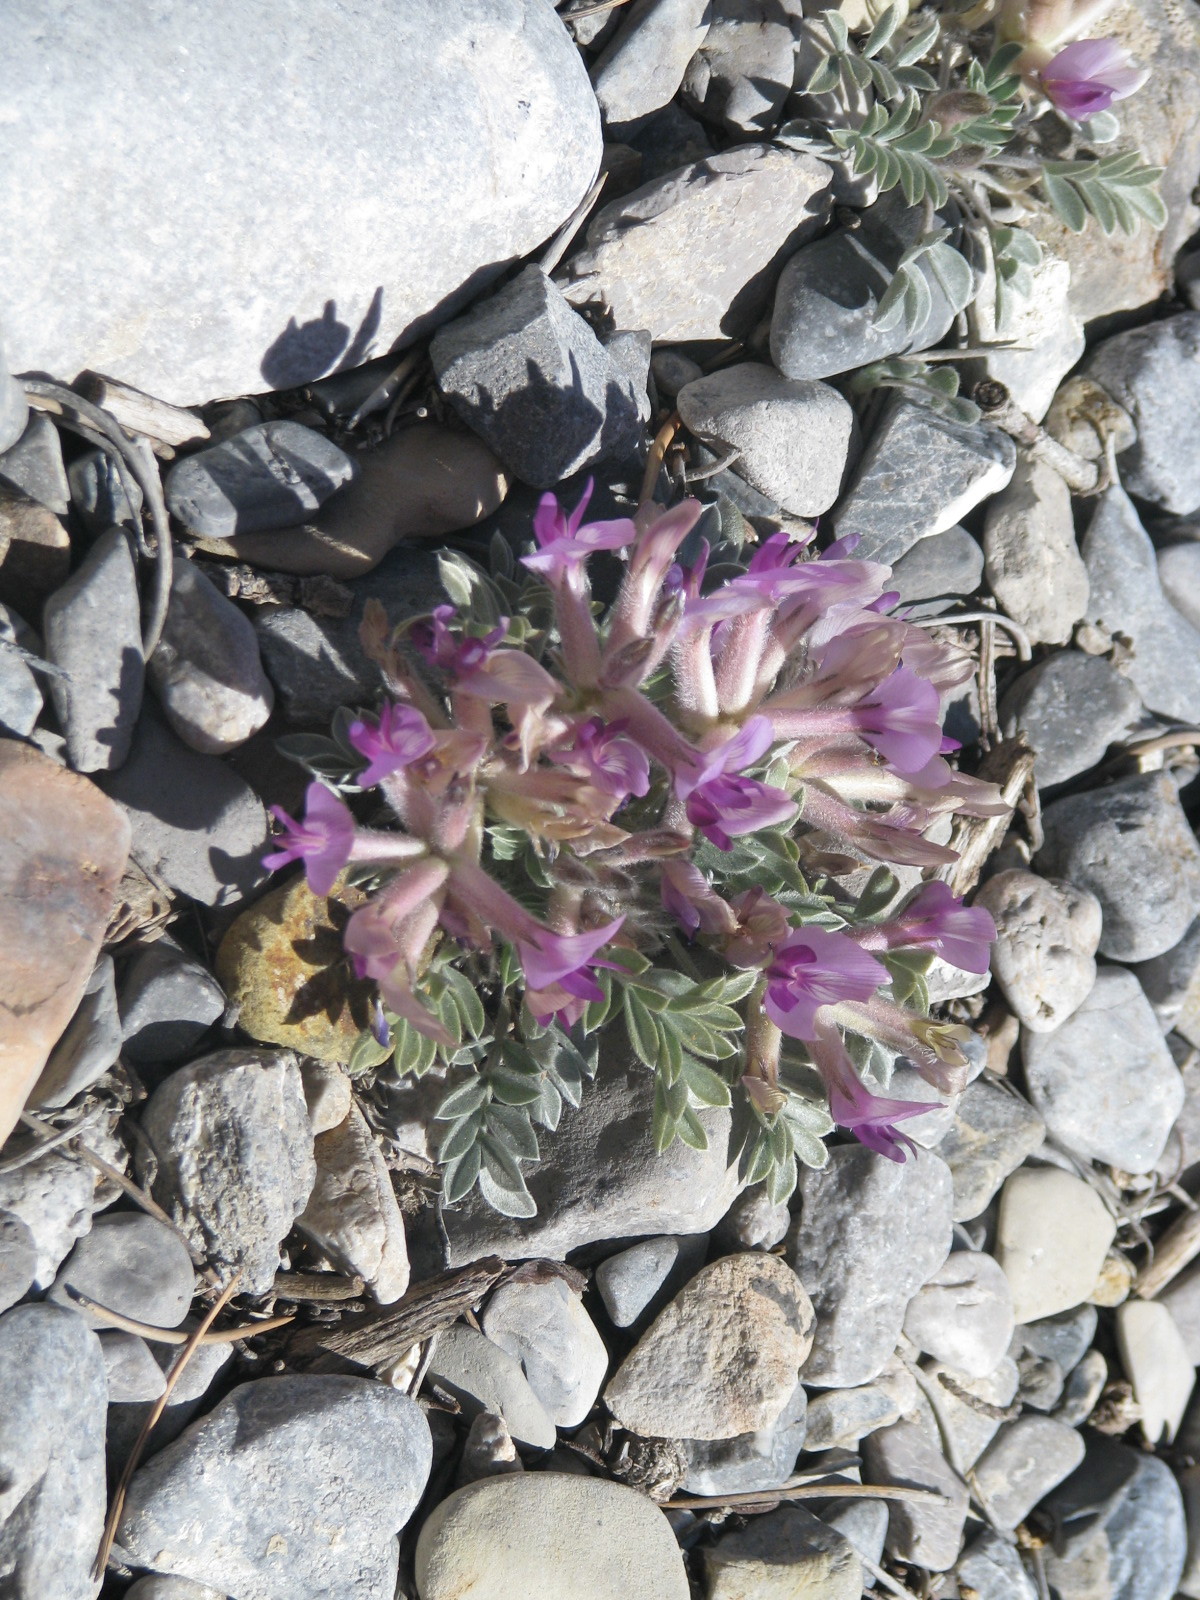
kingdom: Plantae
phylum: Tracheophyta
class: Magnoliopsida
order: Fabales
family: Fabaceae
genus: Astragalus
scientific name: Astragalus purshii
